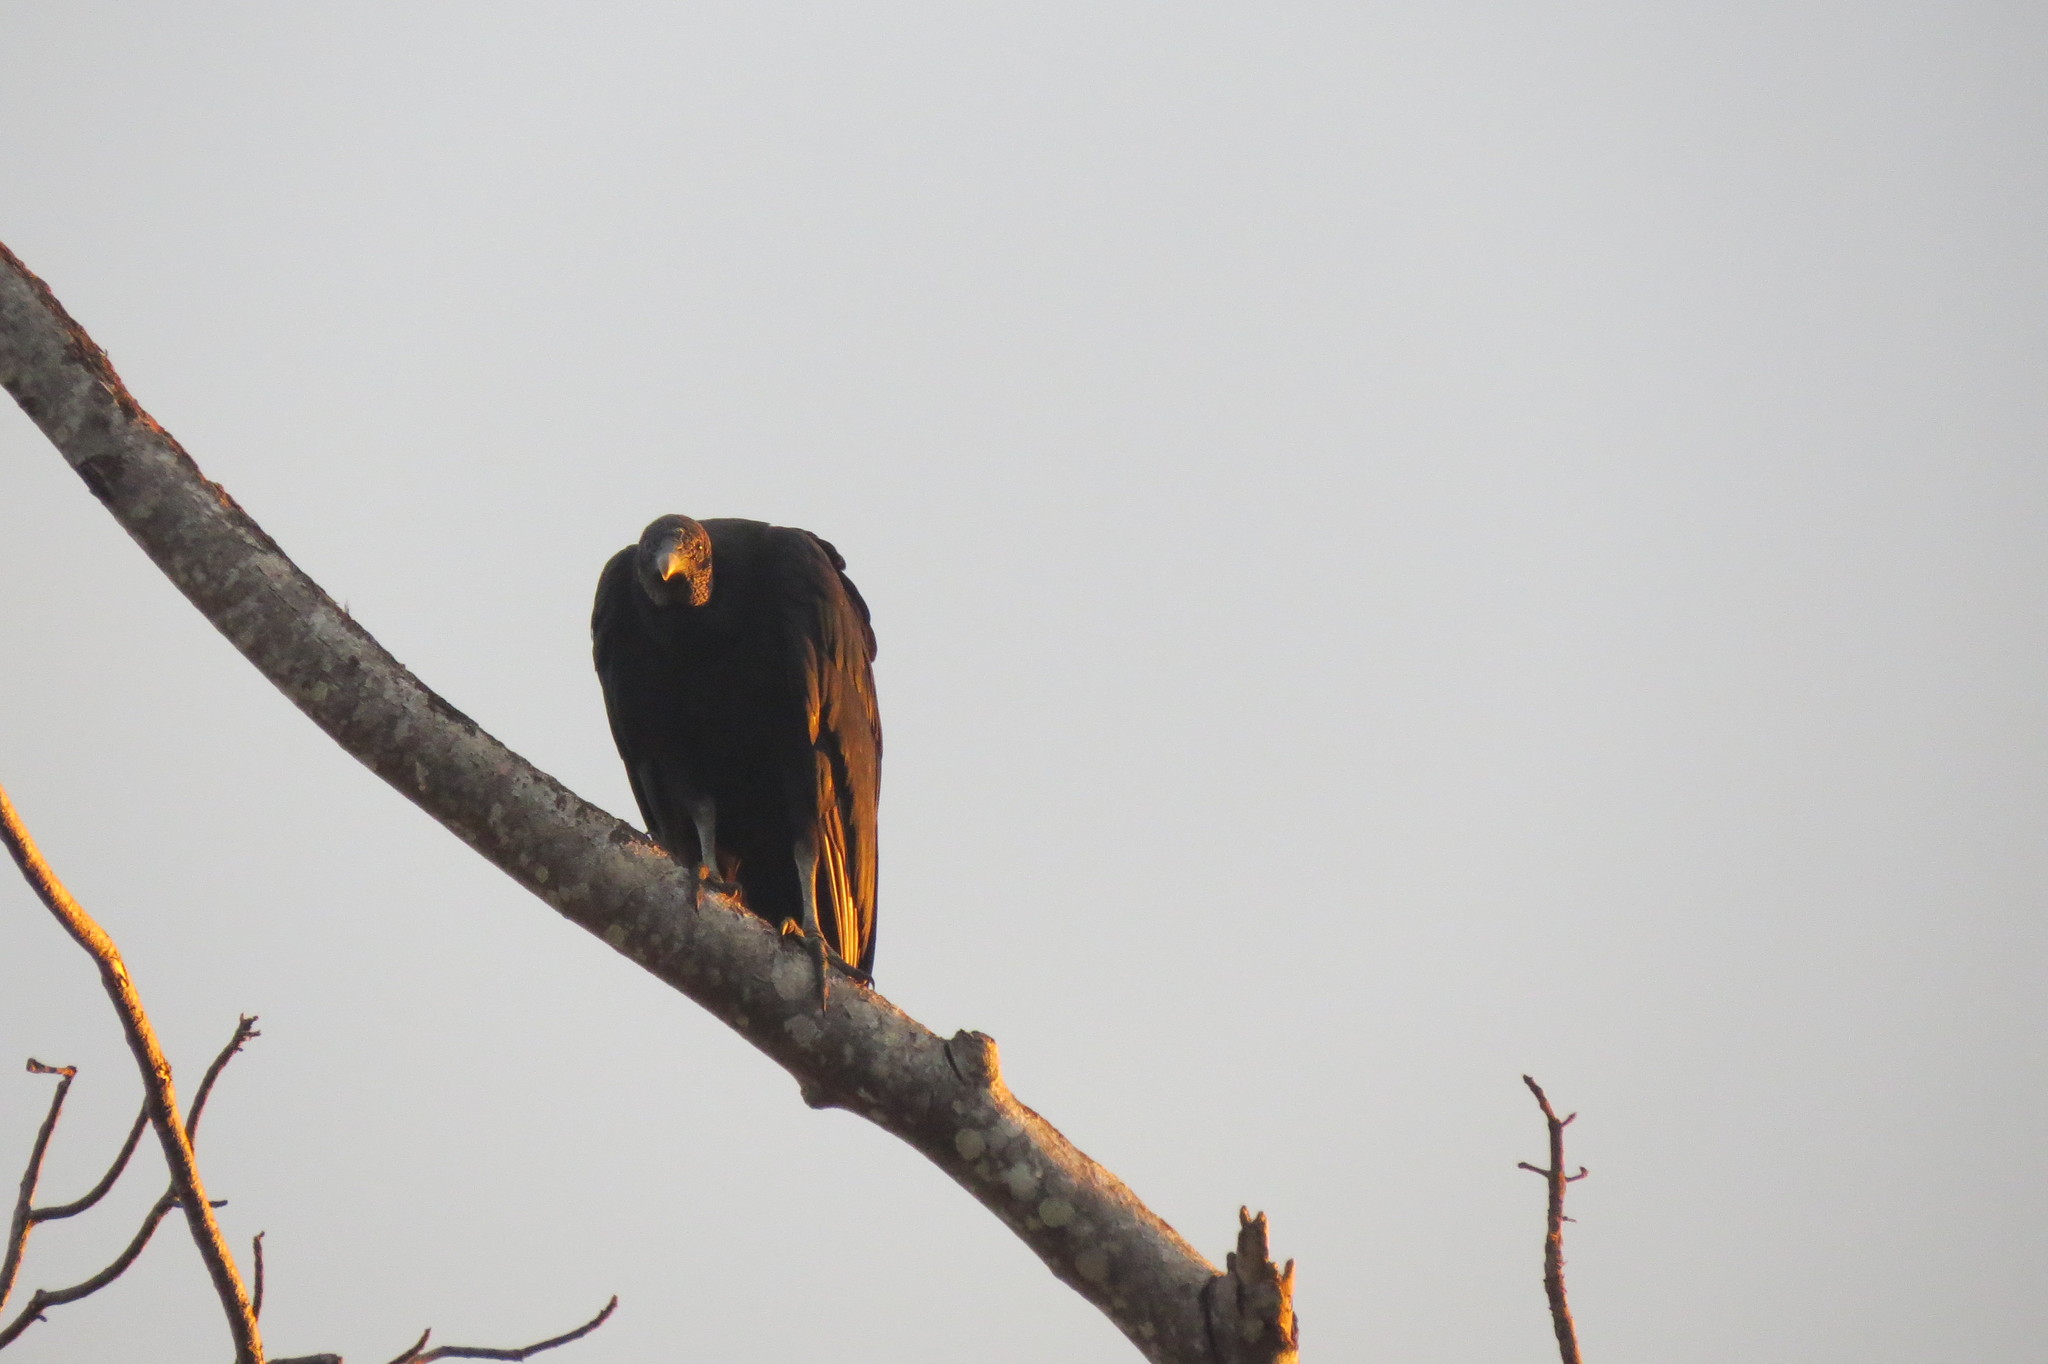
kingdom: Animalia
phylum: Chordata
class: Aves
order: Accipitriformes
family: Cathartidae
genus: Coragyps
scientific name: Coragyps atratus
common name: Black vulture
